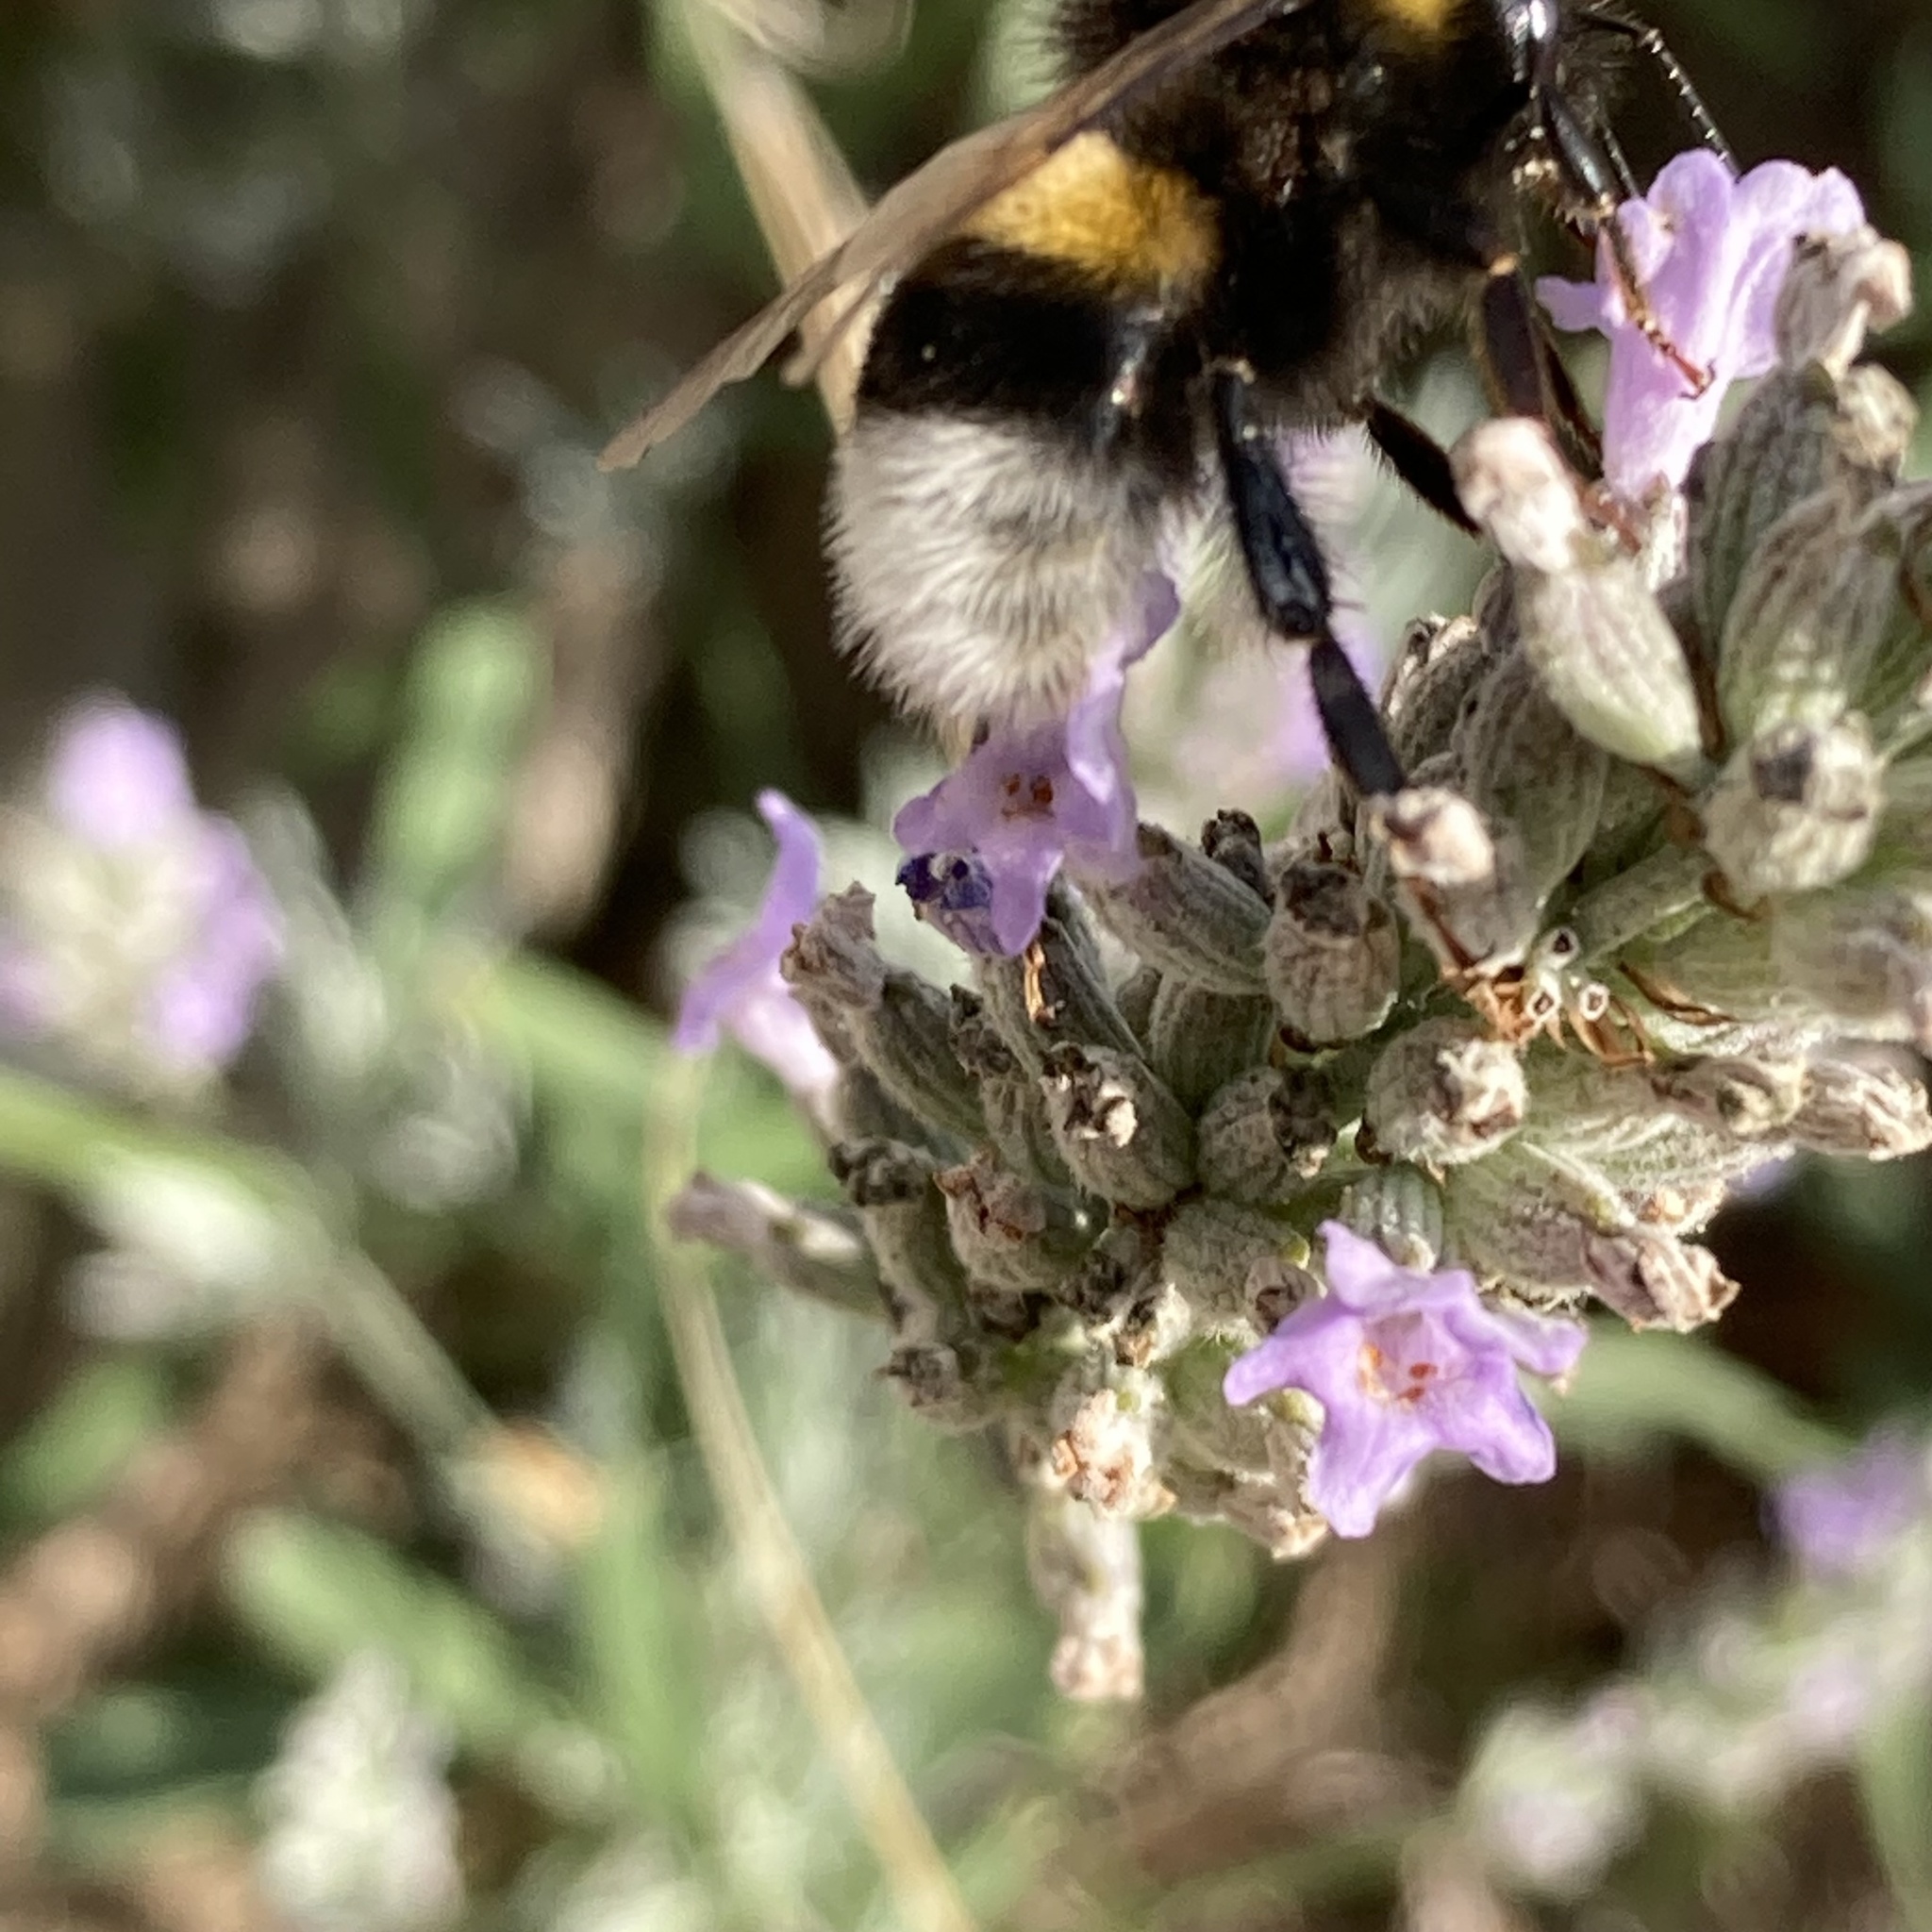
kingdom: Animalia
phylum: Arthropoda
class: Insecta
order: Hymenoptera
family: Apidae
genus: Bombus
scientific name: Bombus terrestris
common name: Buff-tailed bumblebee
